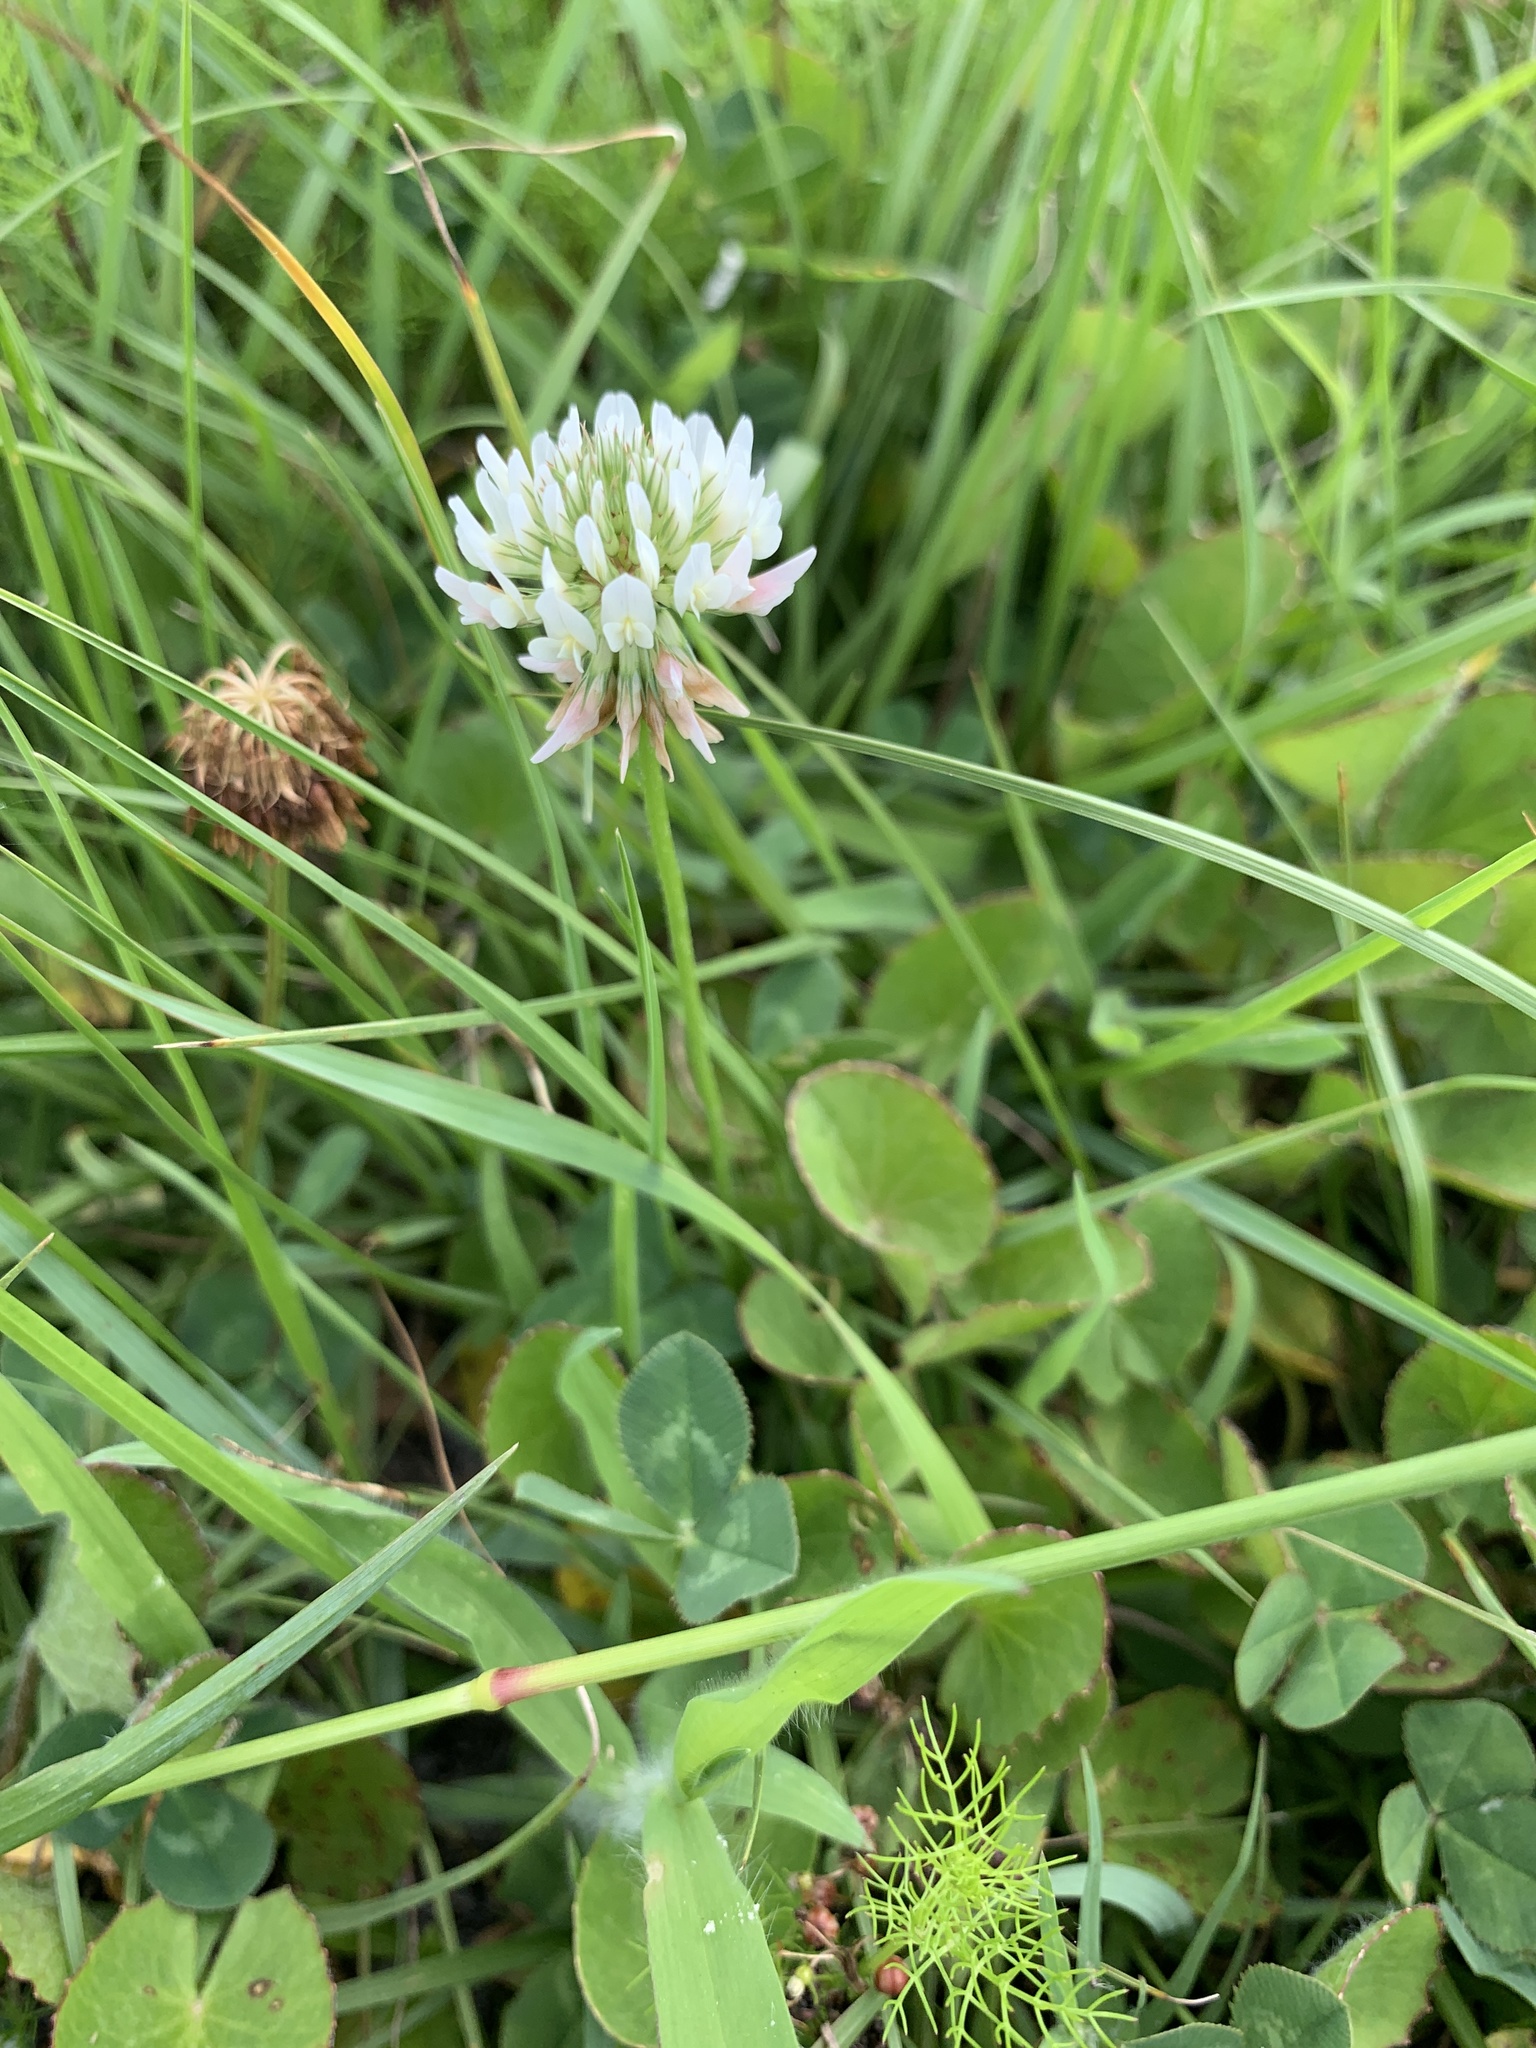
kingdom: Plantae
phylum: Tracheophyta
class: Magnoliopsida
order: Fabales
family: Fabaceae
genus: Trifolium
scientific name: Trifolium repens
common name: White clover
